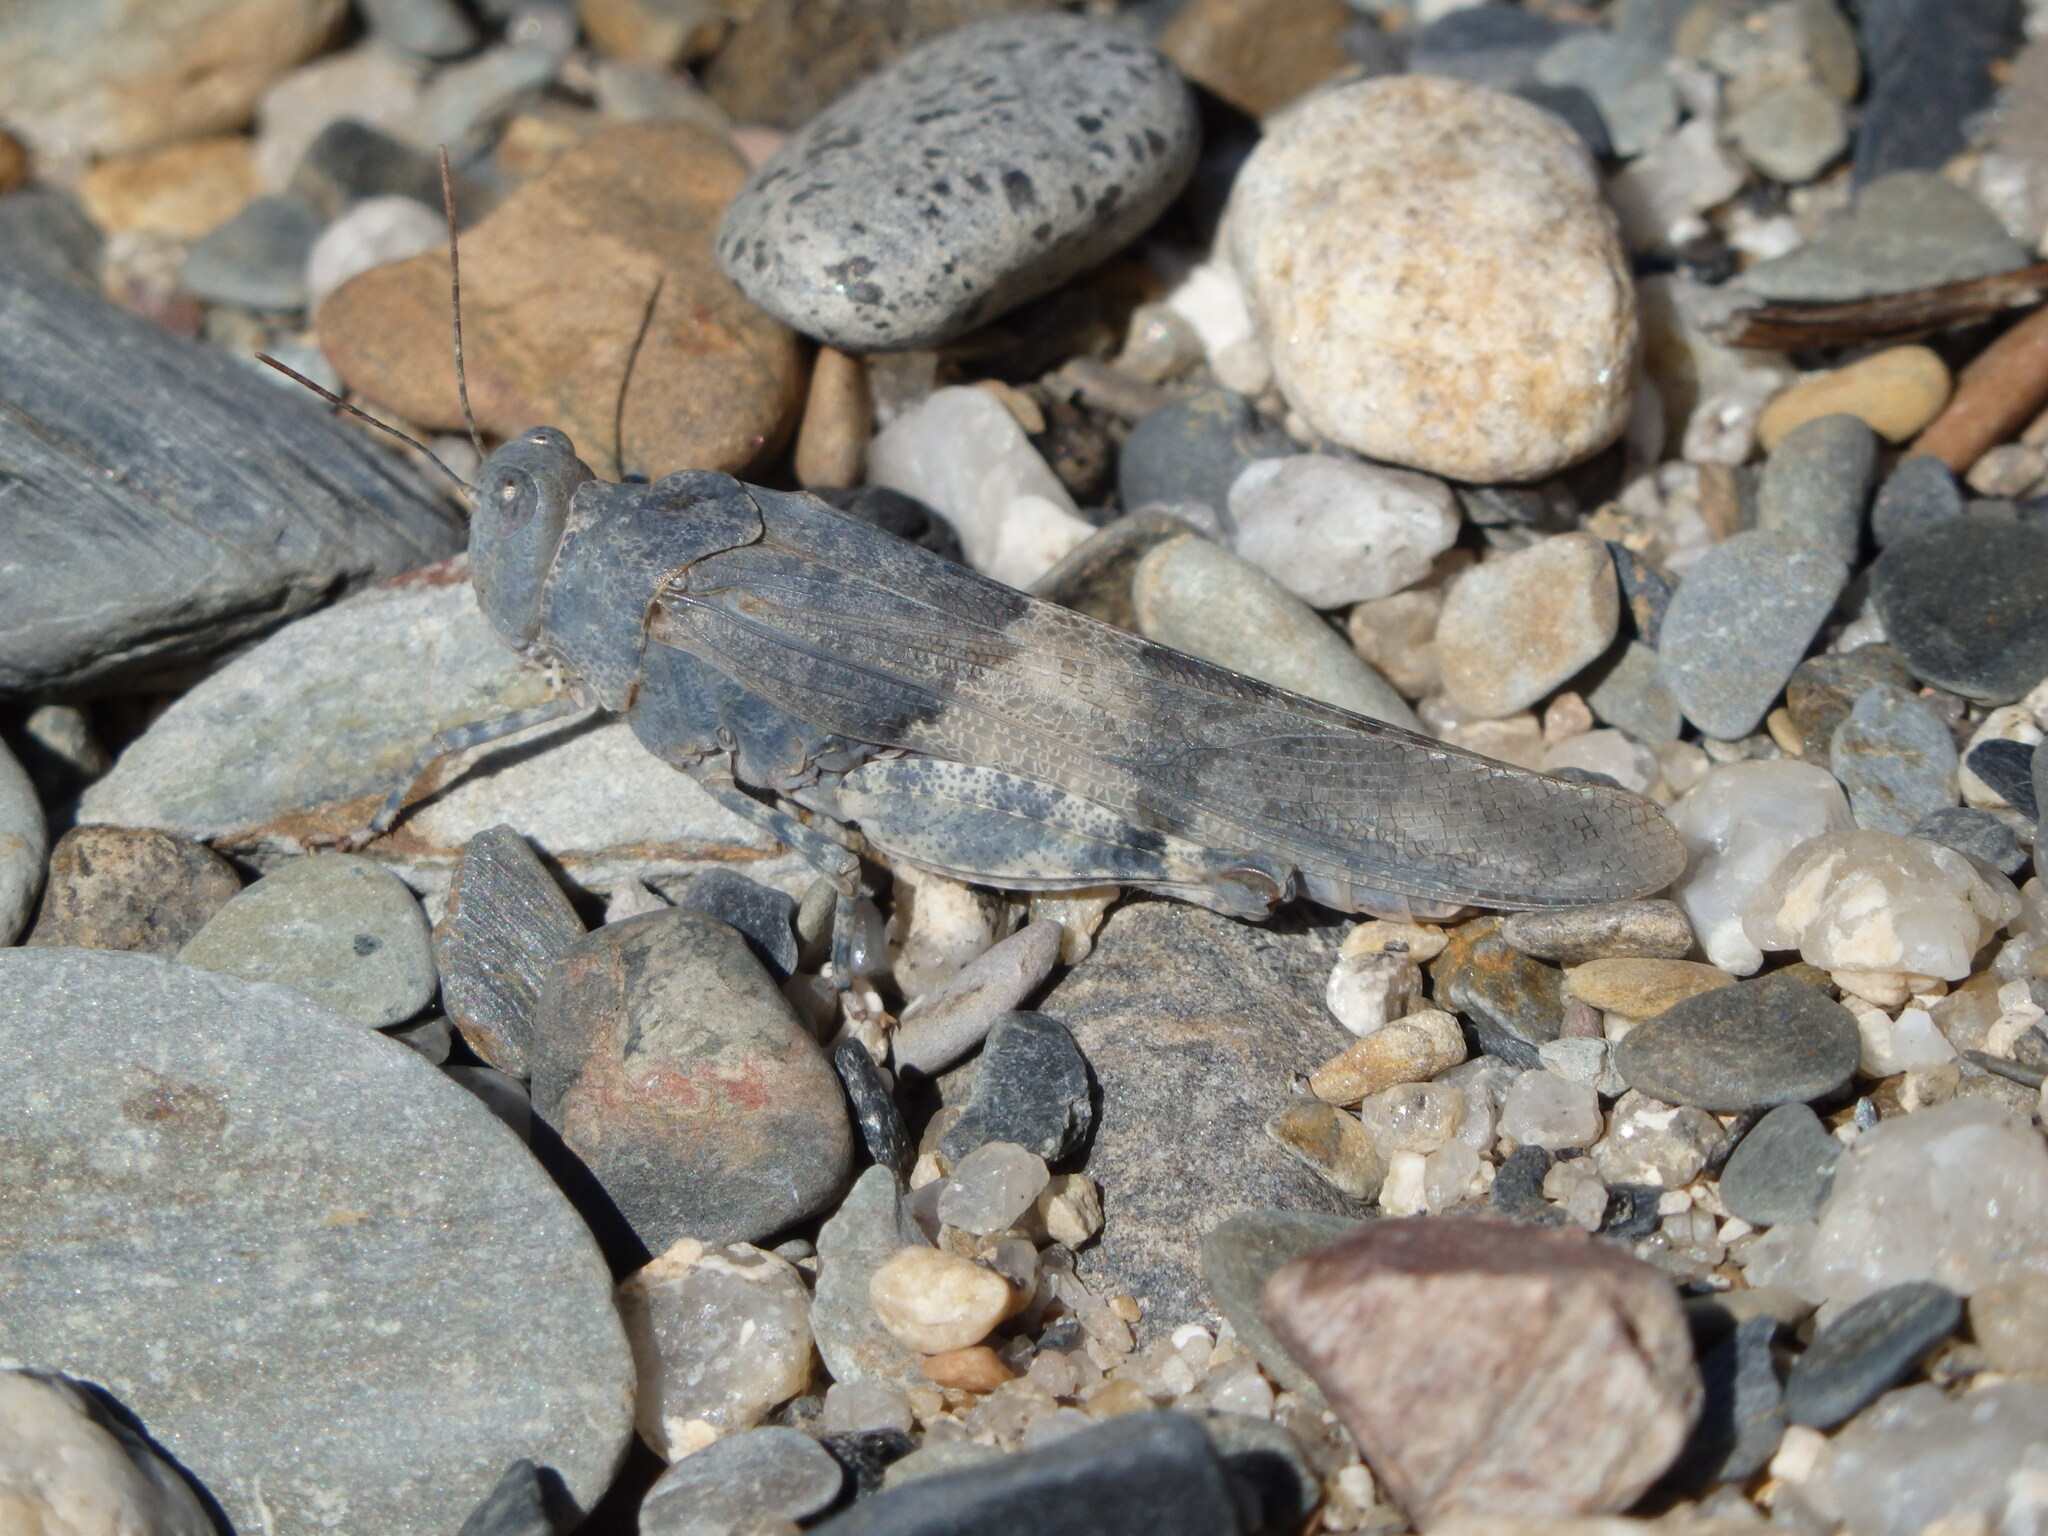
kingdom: Animalia
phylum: Arthropoda
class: Insecta
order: Orthoptera
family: Acrididae
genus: Sphingonotus
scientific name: Sphingonotus caerulans
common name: Blue-winged locust
